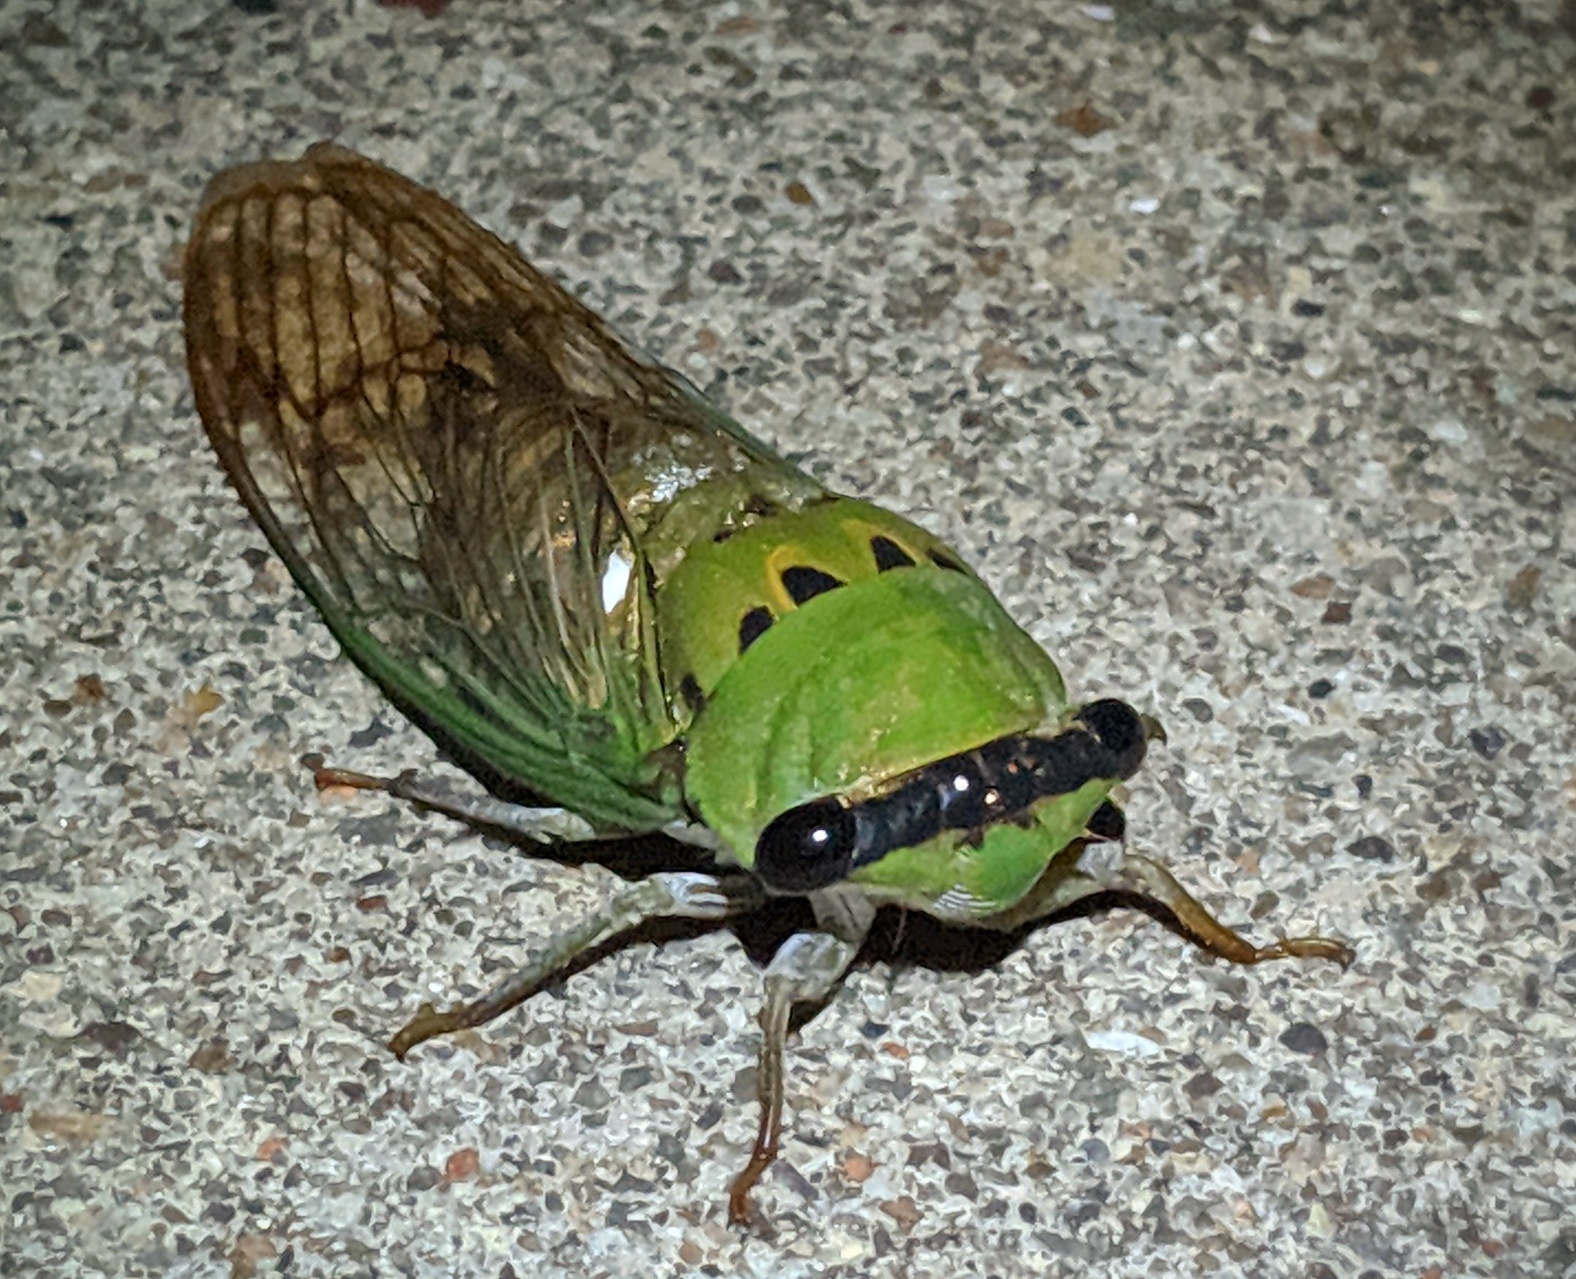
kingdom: Animalia
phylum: Arthropoda
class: Insecta
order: Hemiptera
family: Cicadidae
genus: Neotibicen
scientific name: Neotibicen superbus
